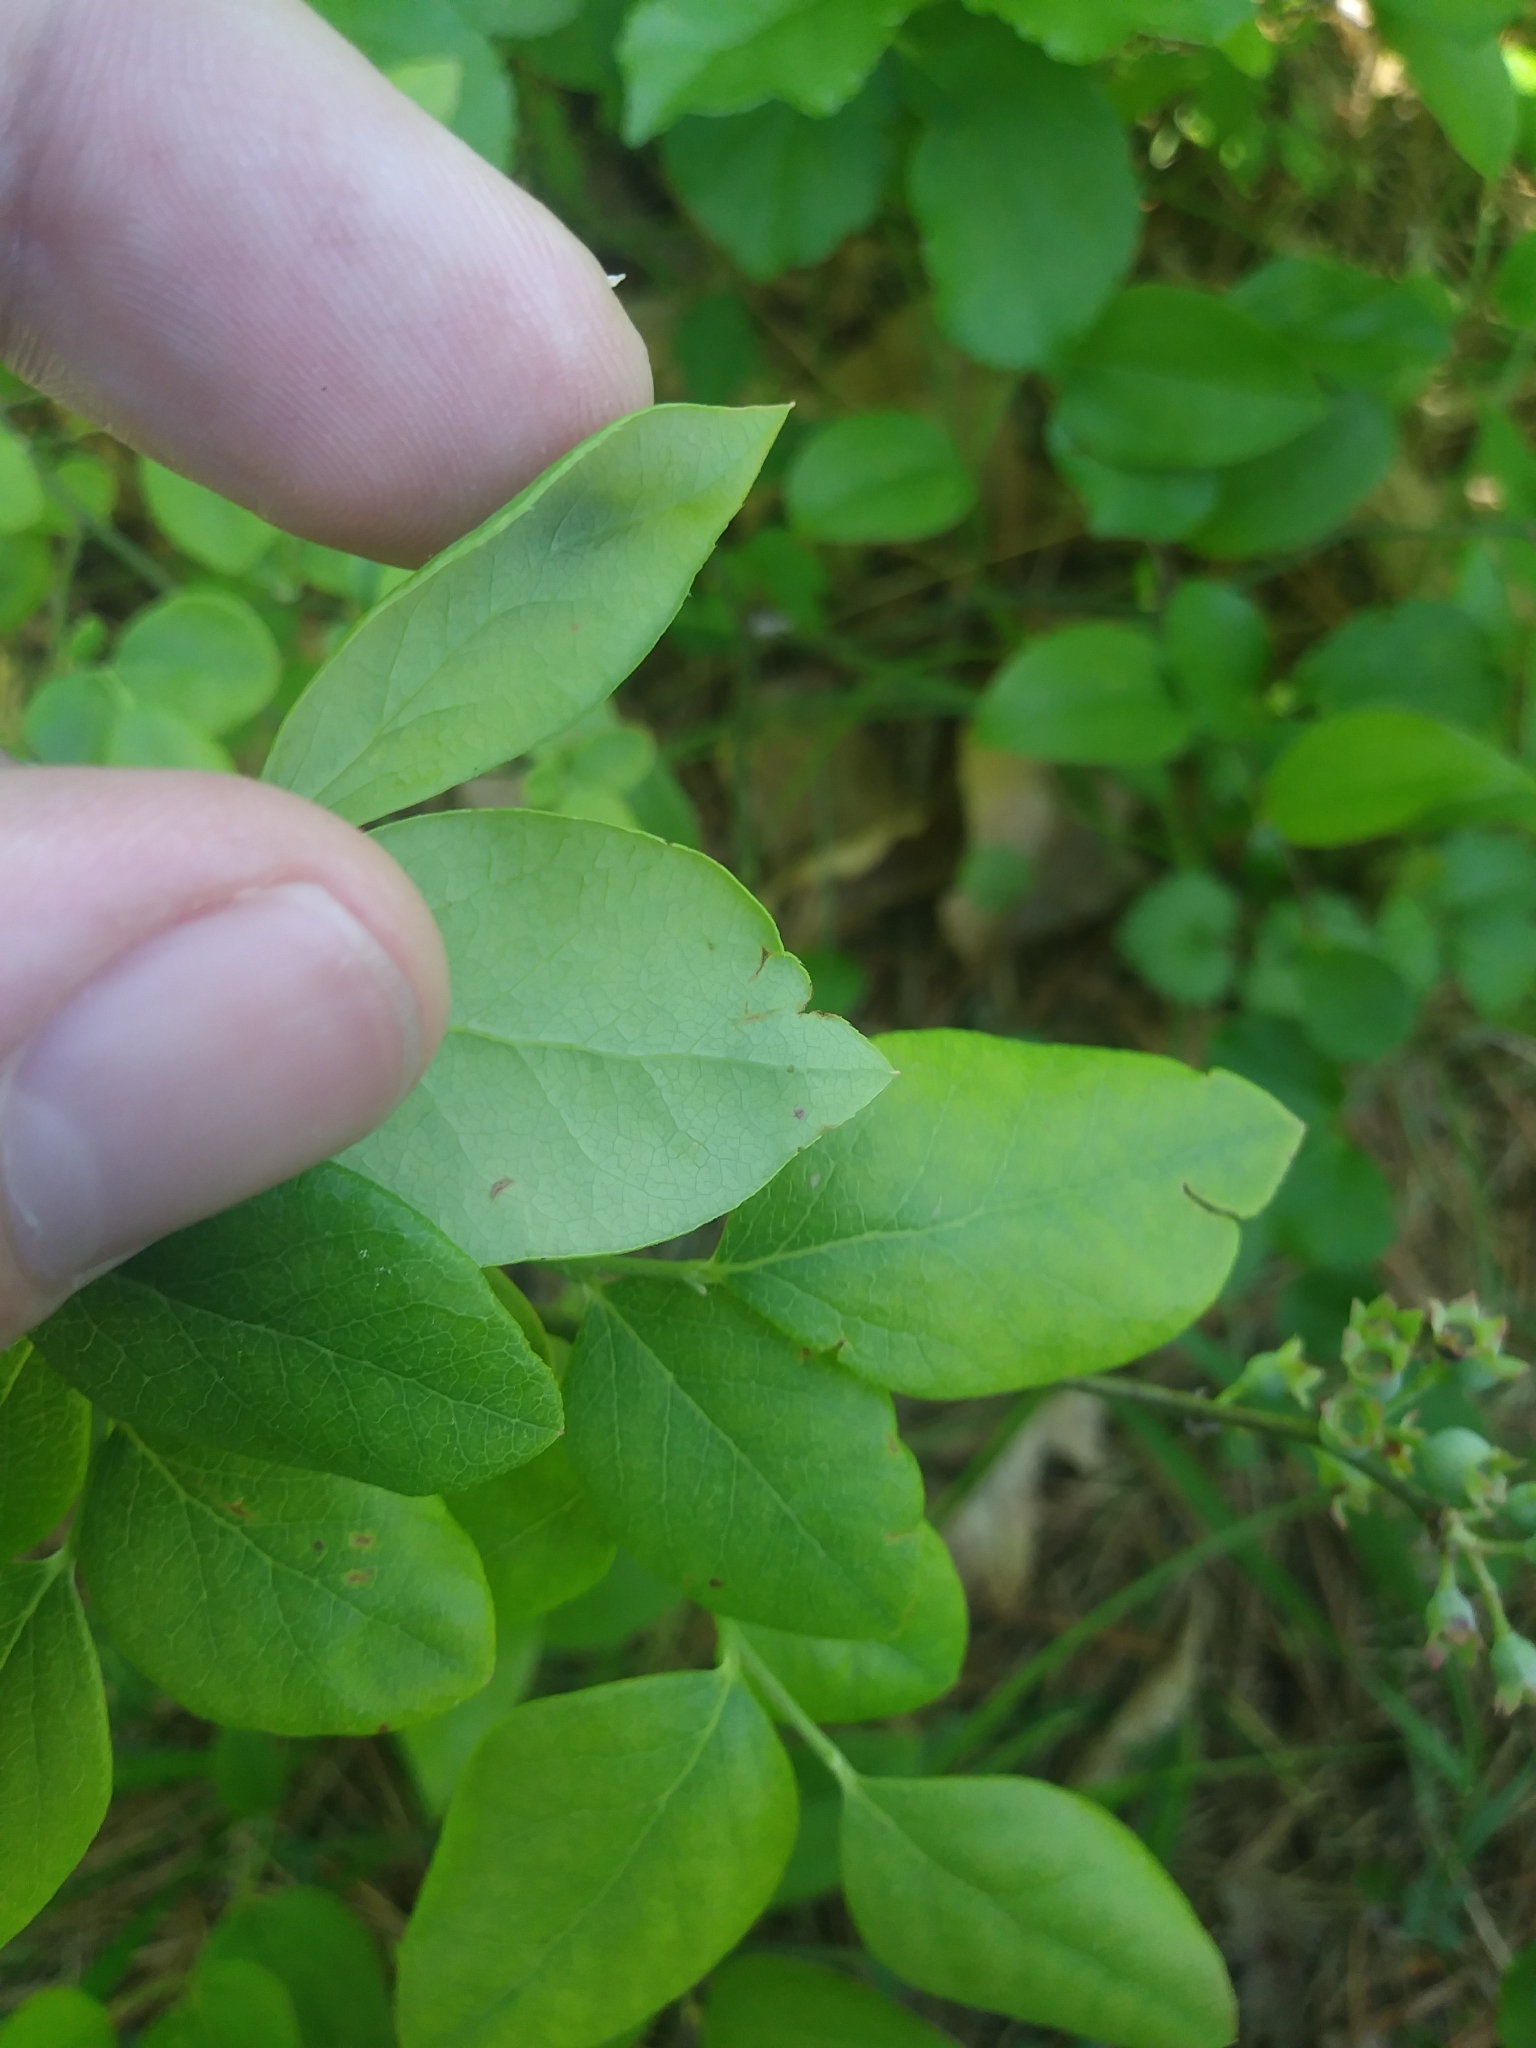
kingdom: Plantae
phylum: Tracheophyta
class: Magnoliopsida
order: Ericales
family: Ericaceae
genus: Vaccinium
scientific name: Vaccinium pallidum
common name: Blue ridge blueberry
